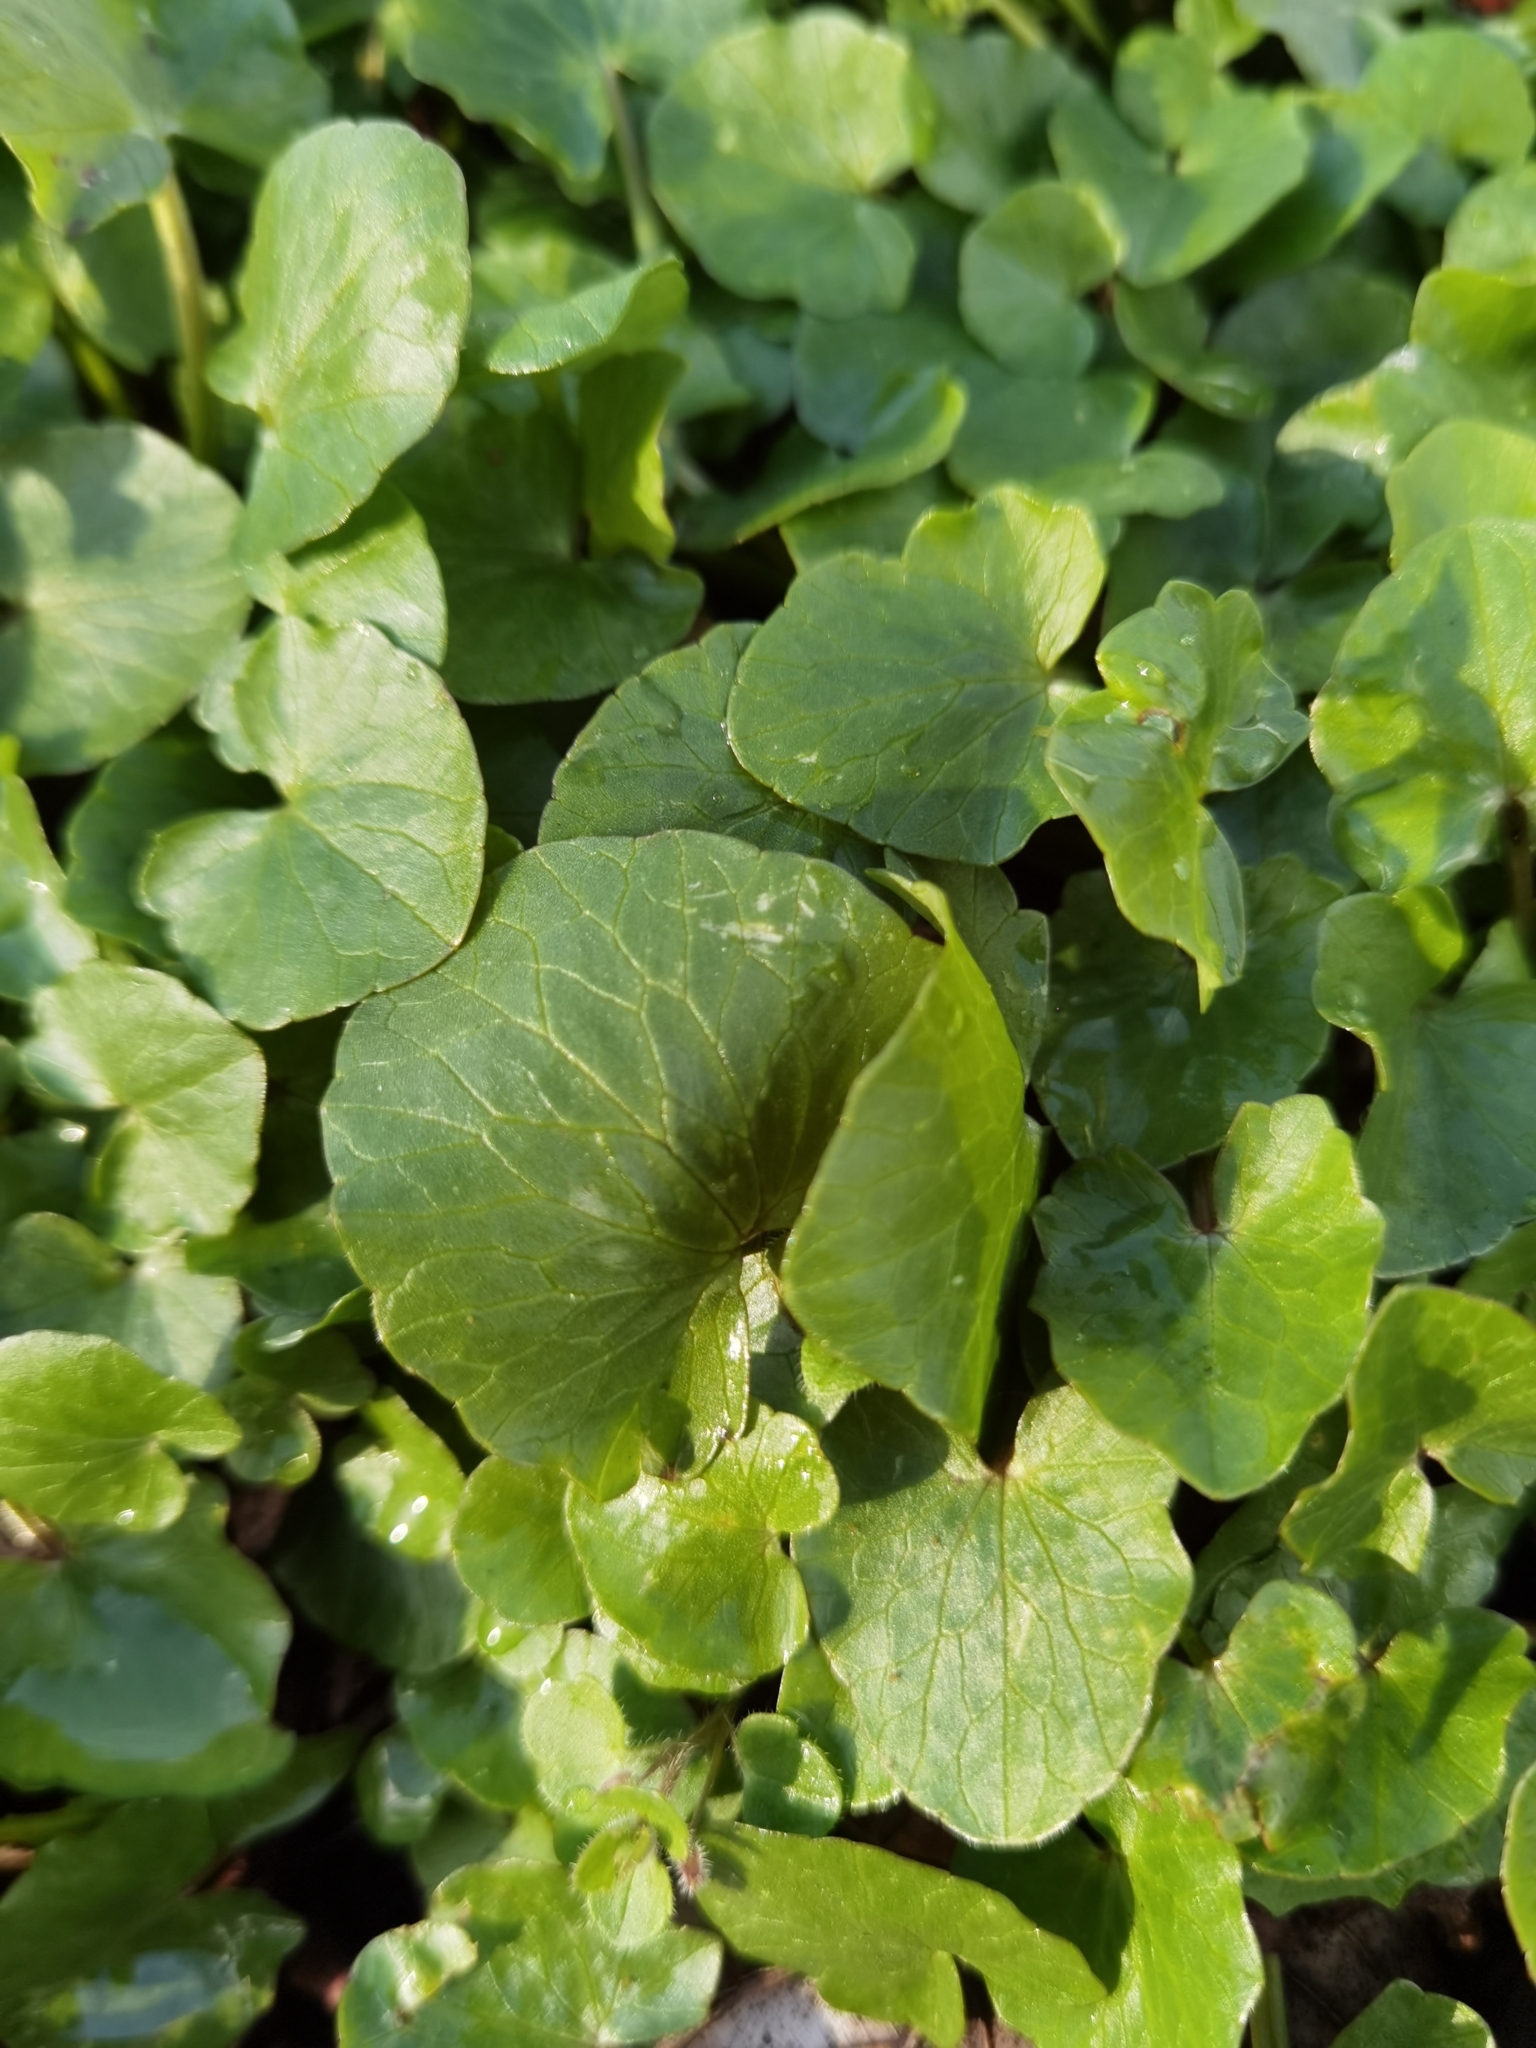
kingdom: Plantae
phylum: Tracheophyta
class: Magnoliopsida
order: Ranunculales
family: Ranunculaceae
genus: Ficaria
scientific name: Ficaria verna
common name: Lesser celandine
